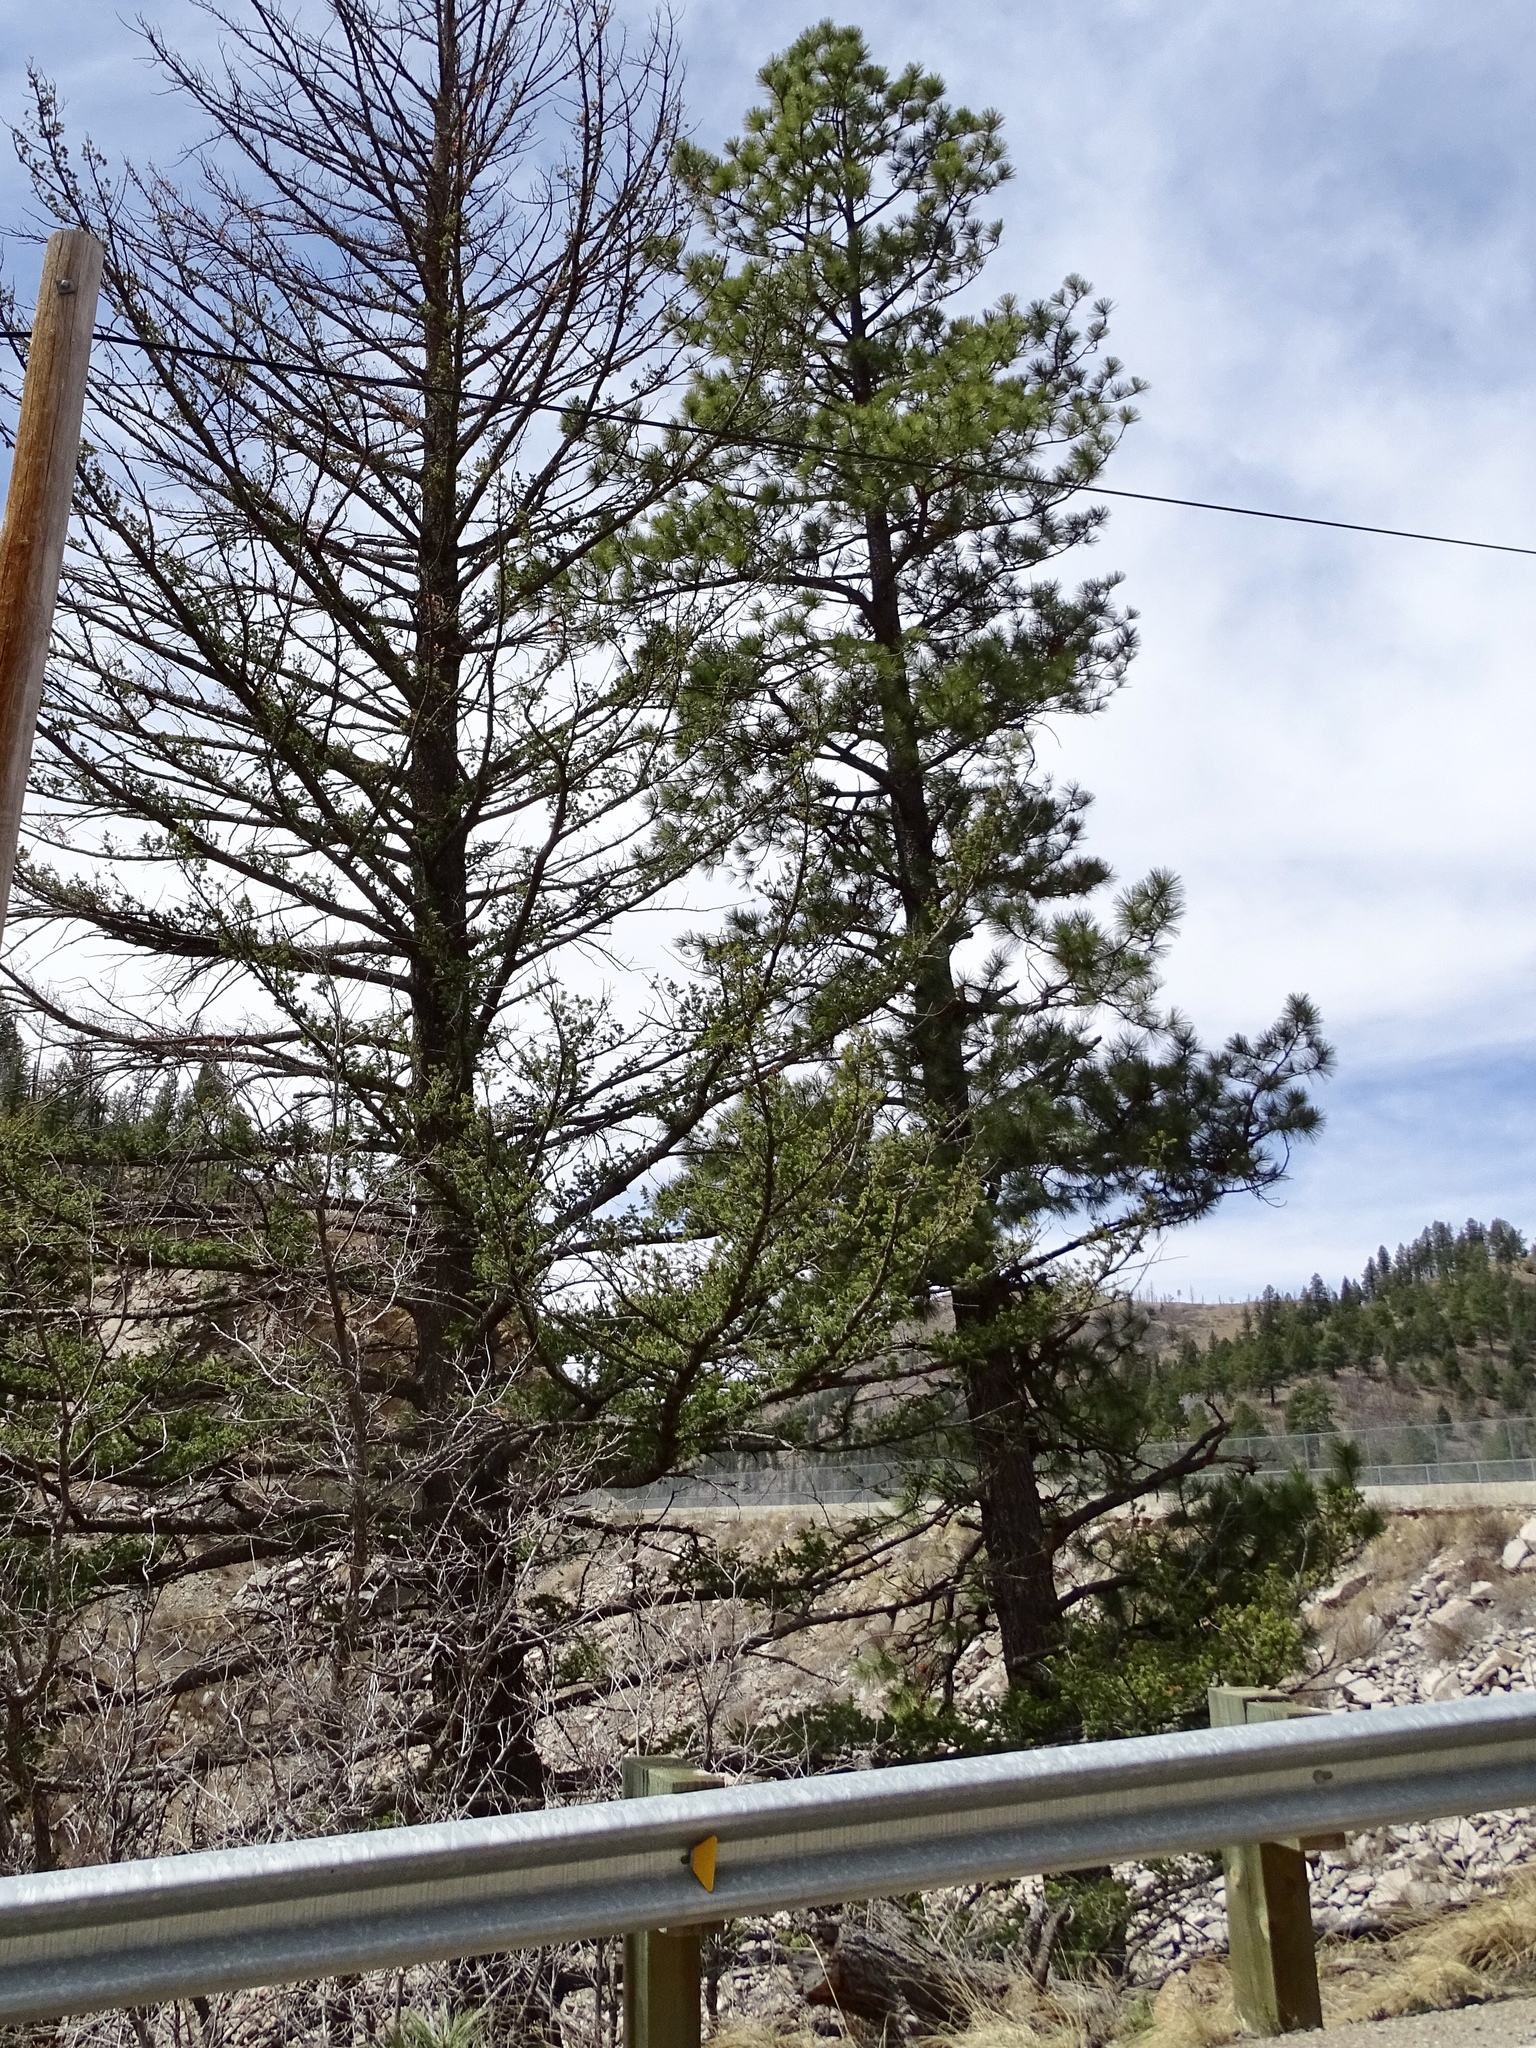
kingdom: Plantae
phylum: Tracheophyta
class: Pinopsida
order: Pinales
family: Pinaceae
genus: Pinus
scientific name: Pinus ponderosa
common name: Western yellow-pine
